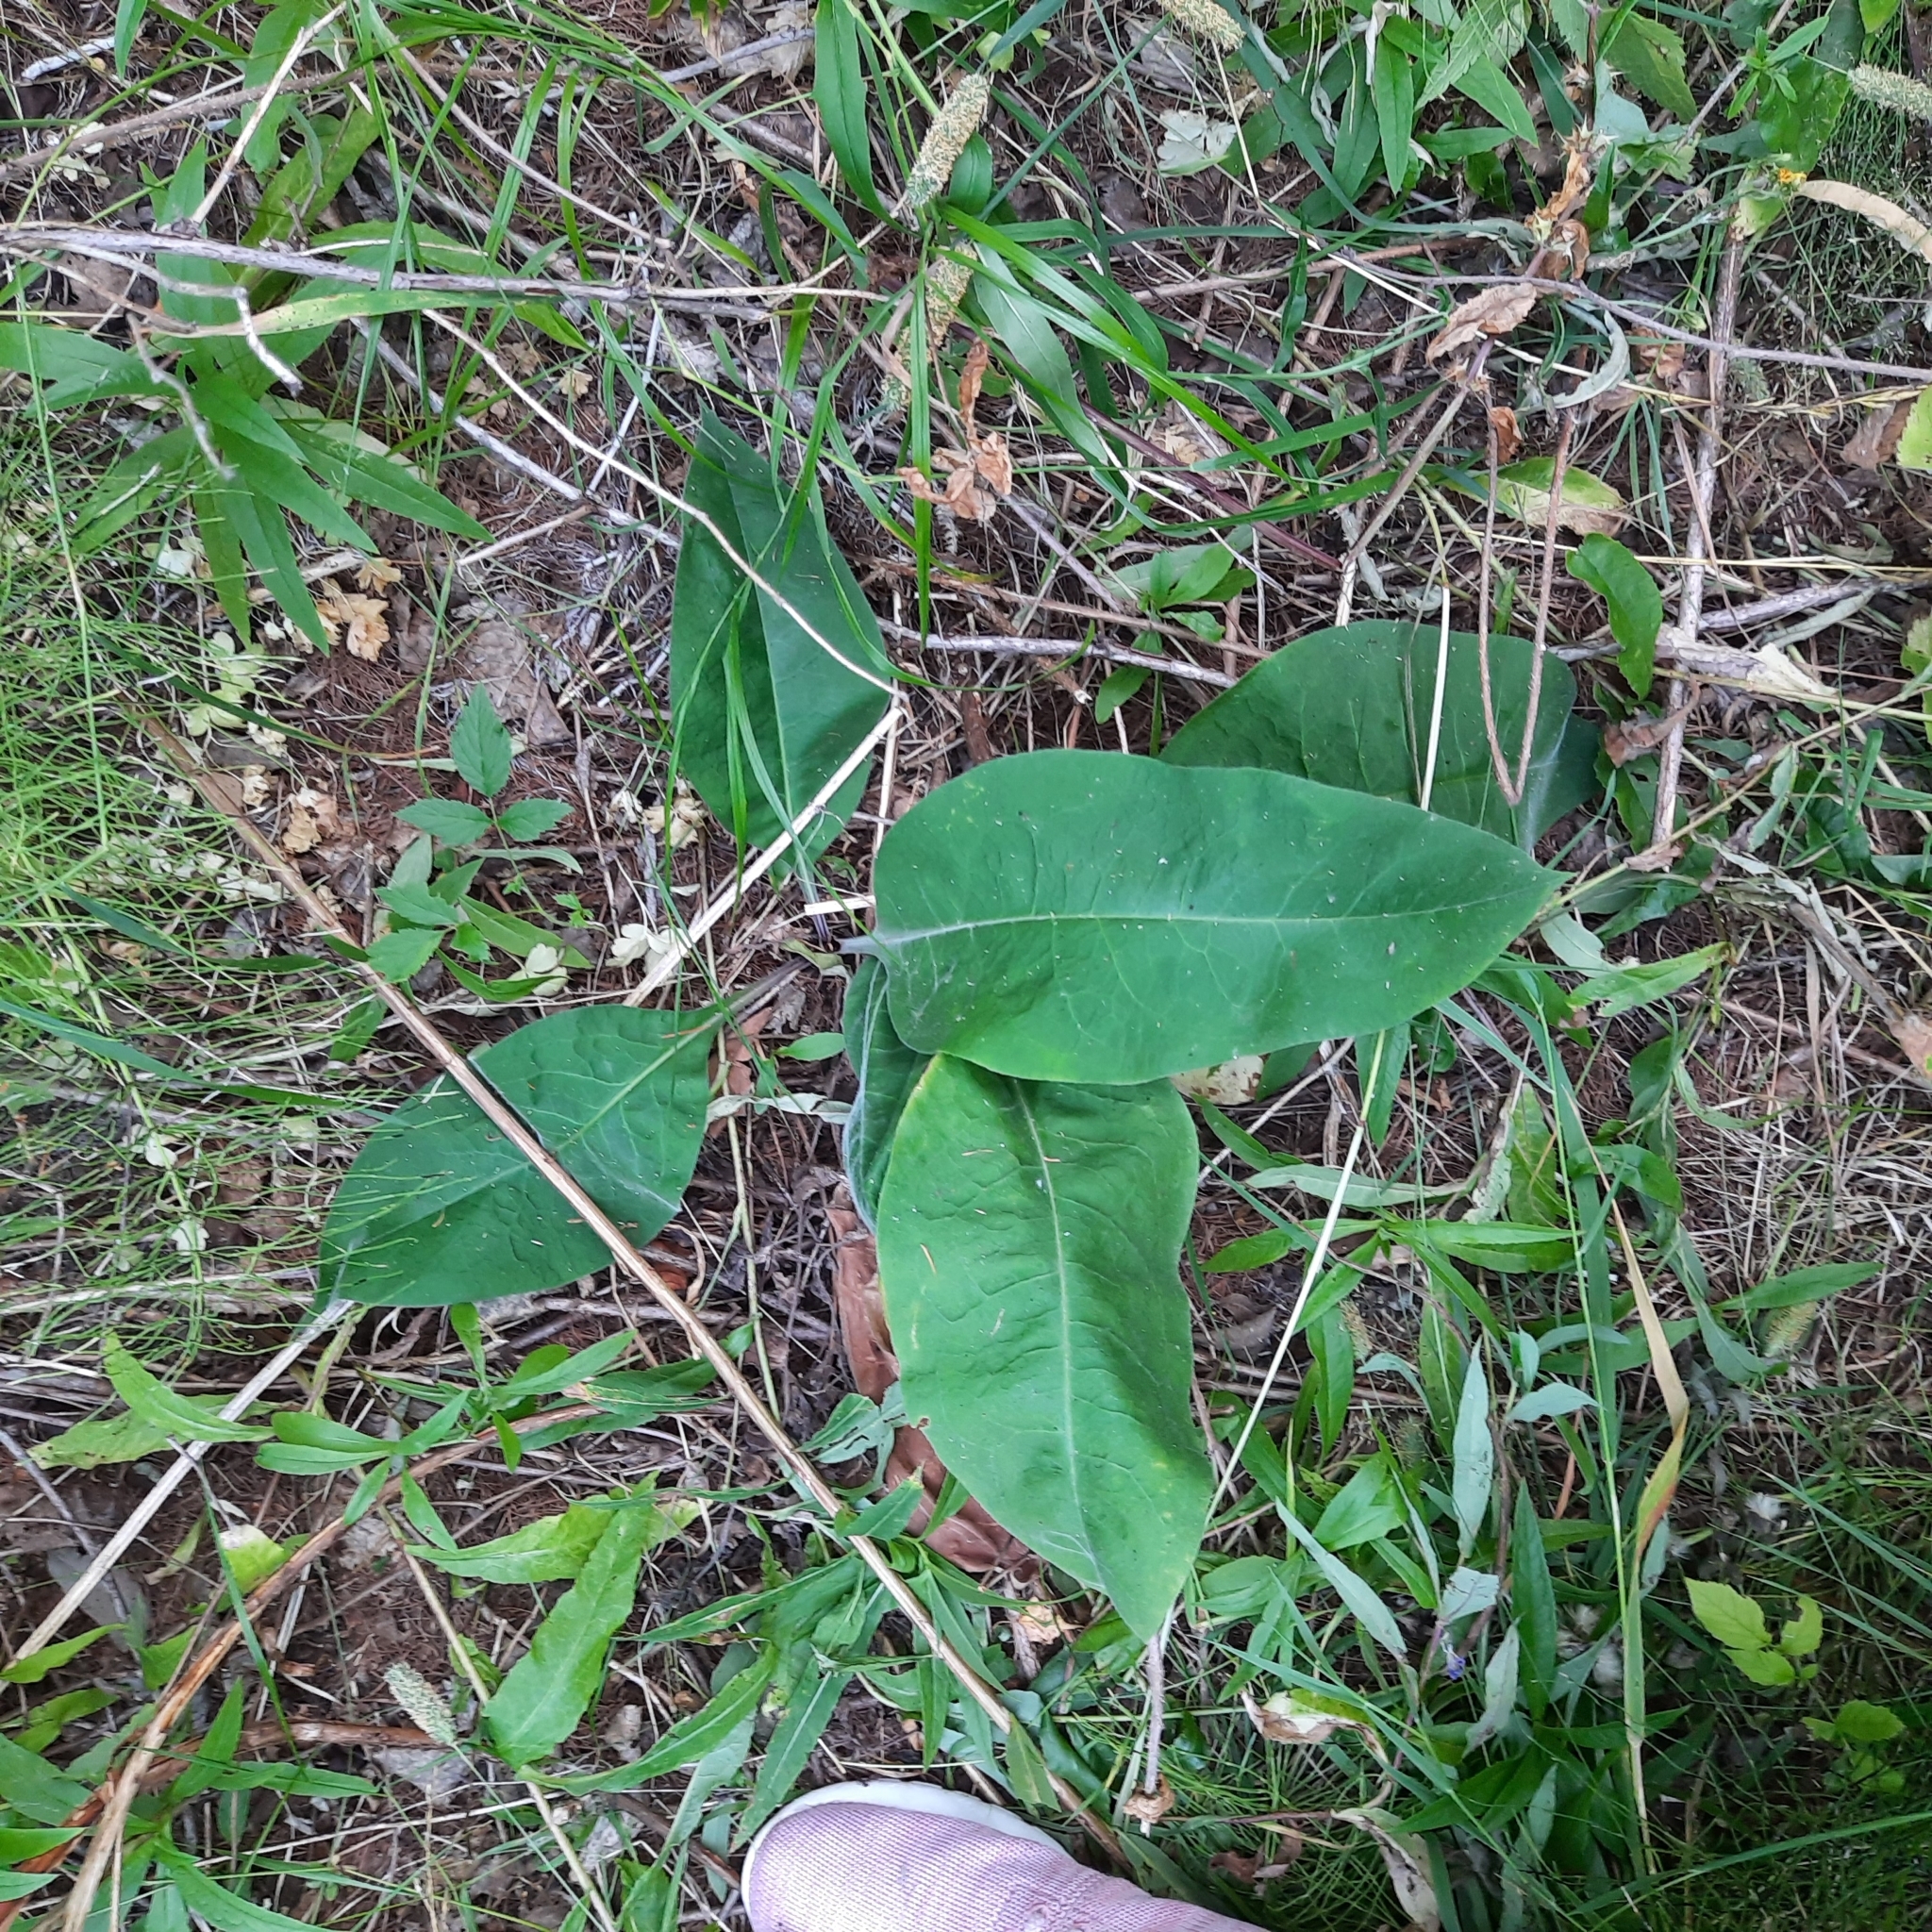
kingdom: Plantae
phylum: Tracheophyta
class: Magnoliopsida
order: Boraginales
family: Boraginaceae
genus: Pulmonaria
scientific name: Pulmonaria mollis
